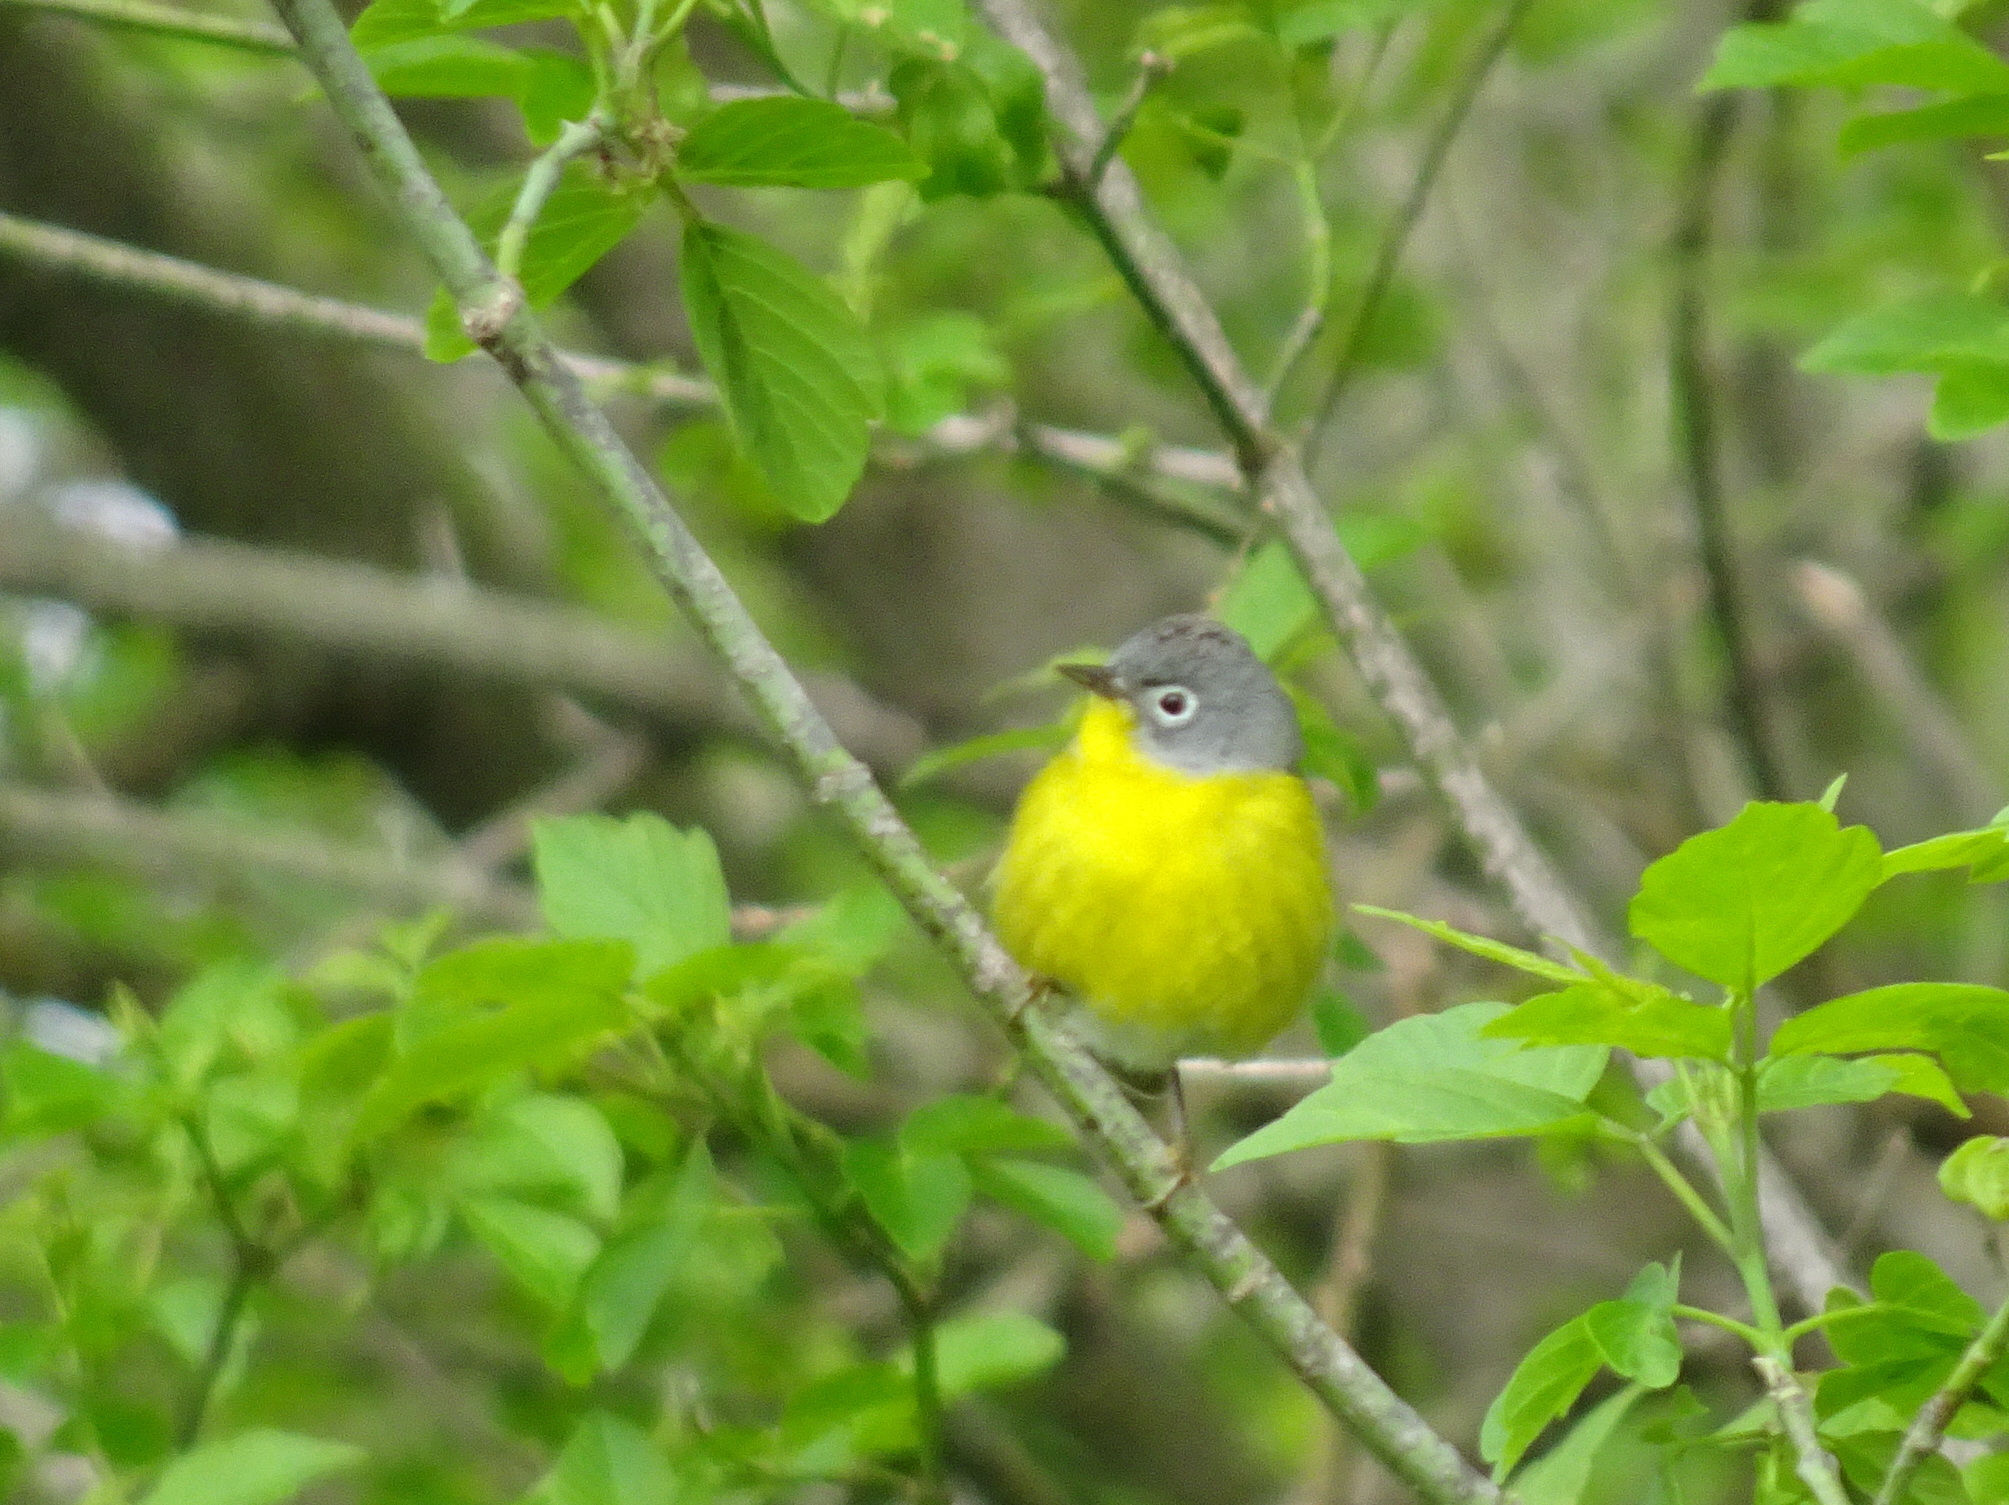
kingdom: Animalia
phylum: Chordata
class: Aves
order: Passeriformes
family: Parulidae
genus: Leiothlypis
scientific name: Leiothlypis ruficapilla
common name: Nashville warbler
